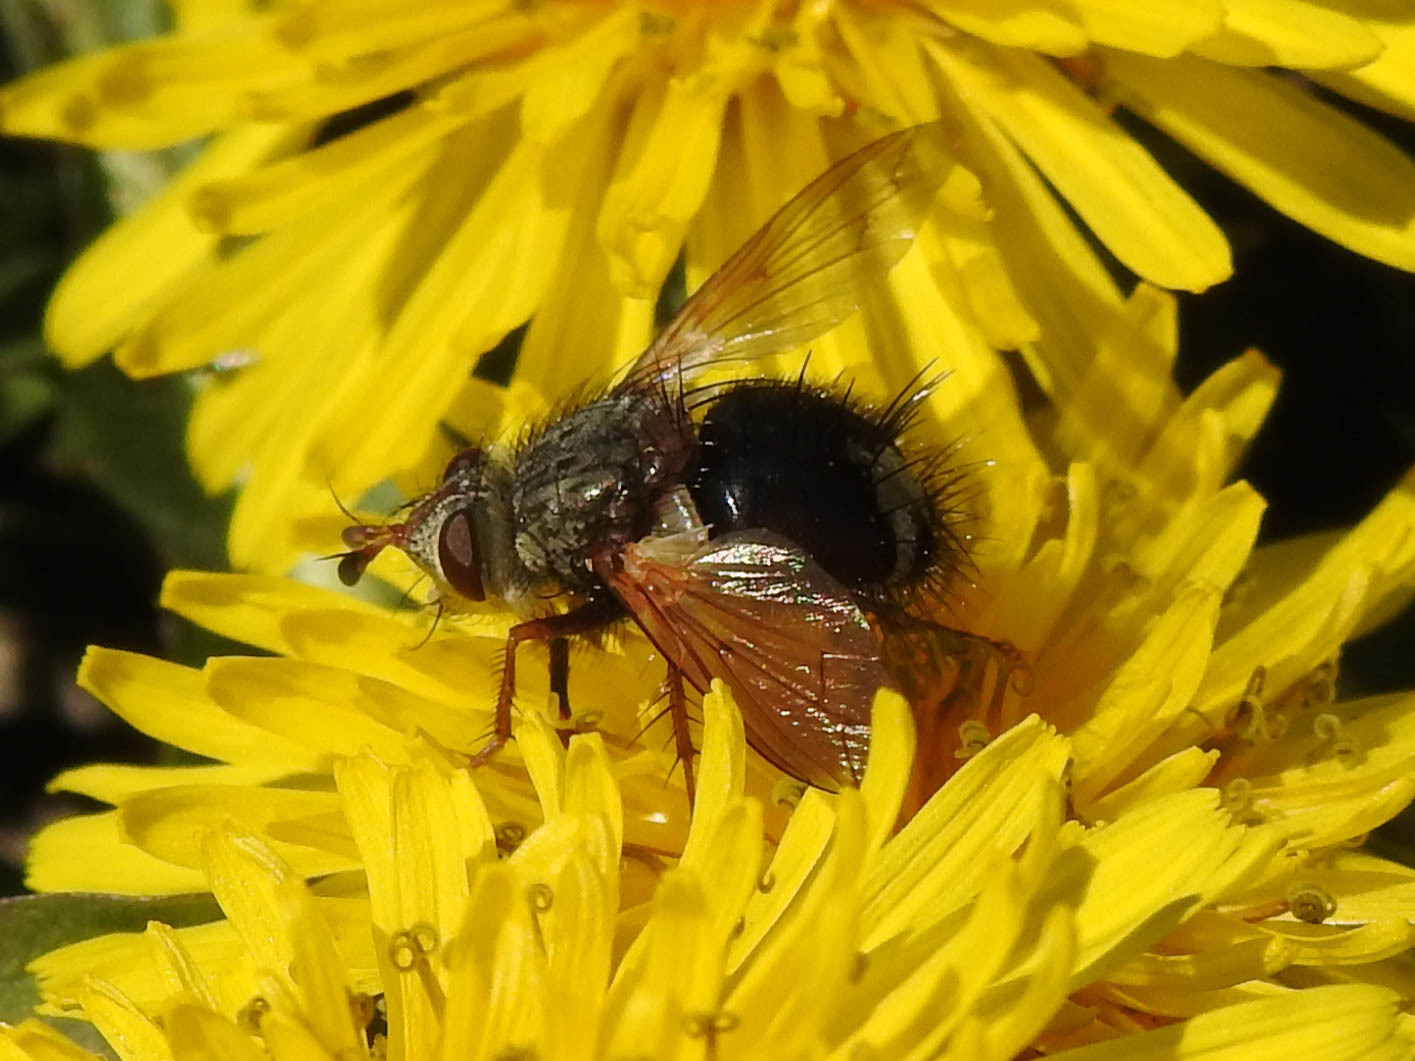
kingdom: Animalia
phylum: Arthropoda
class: Insecta
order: Diptera
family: Tachinidae
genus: Epalpus
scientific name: Epalpus signifer
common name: Early tachinid fly
